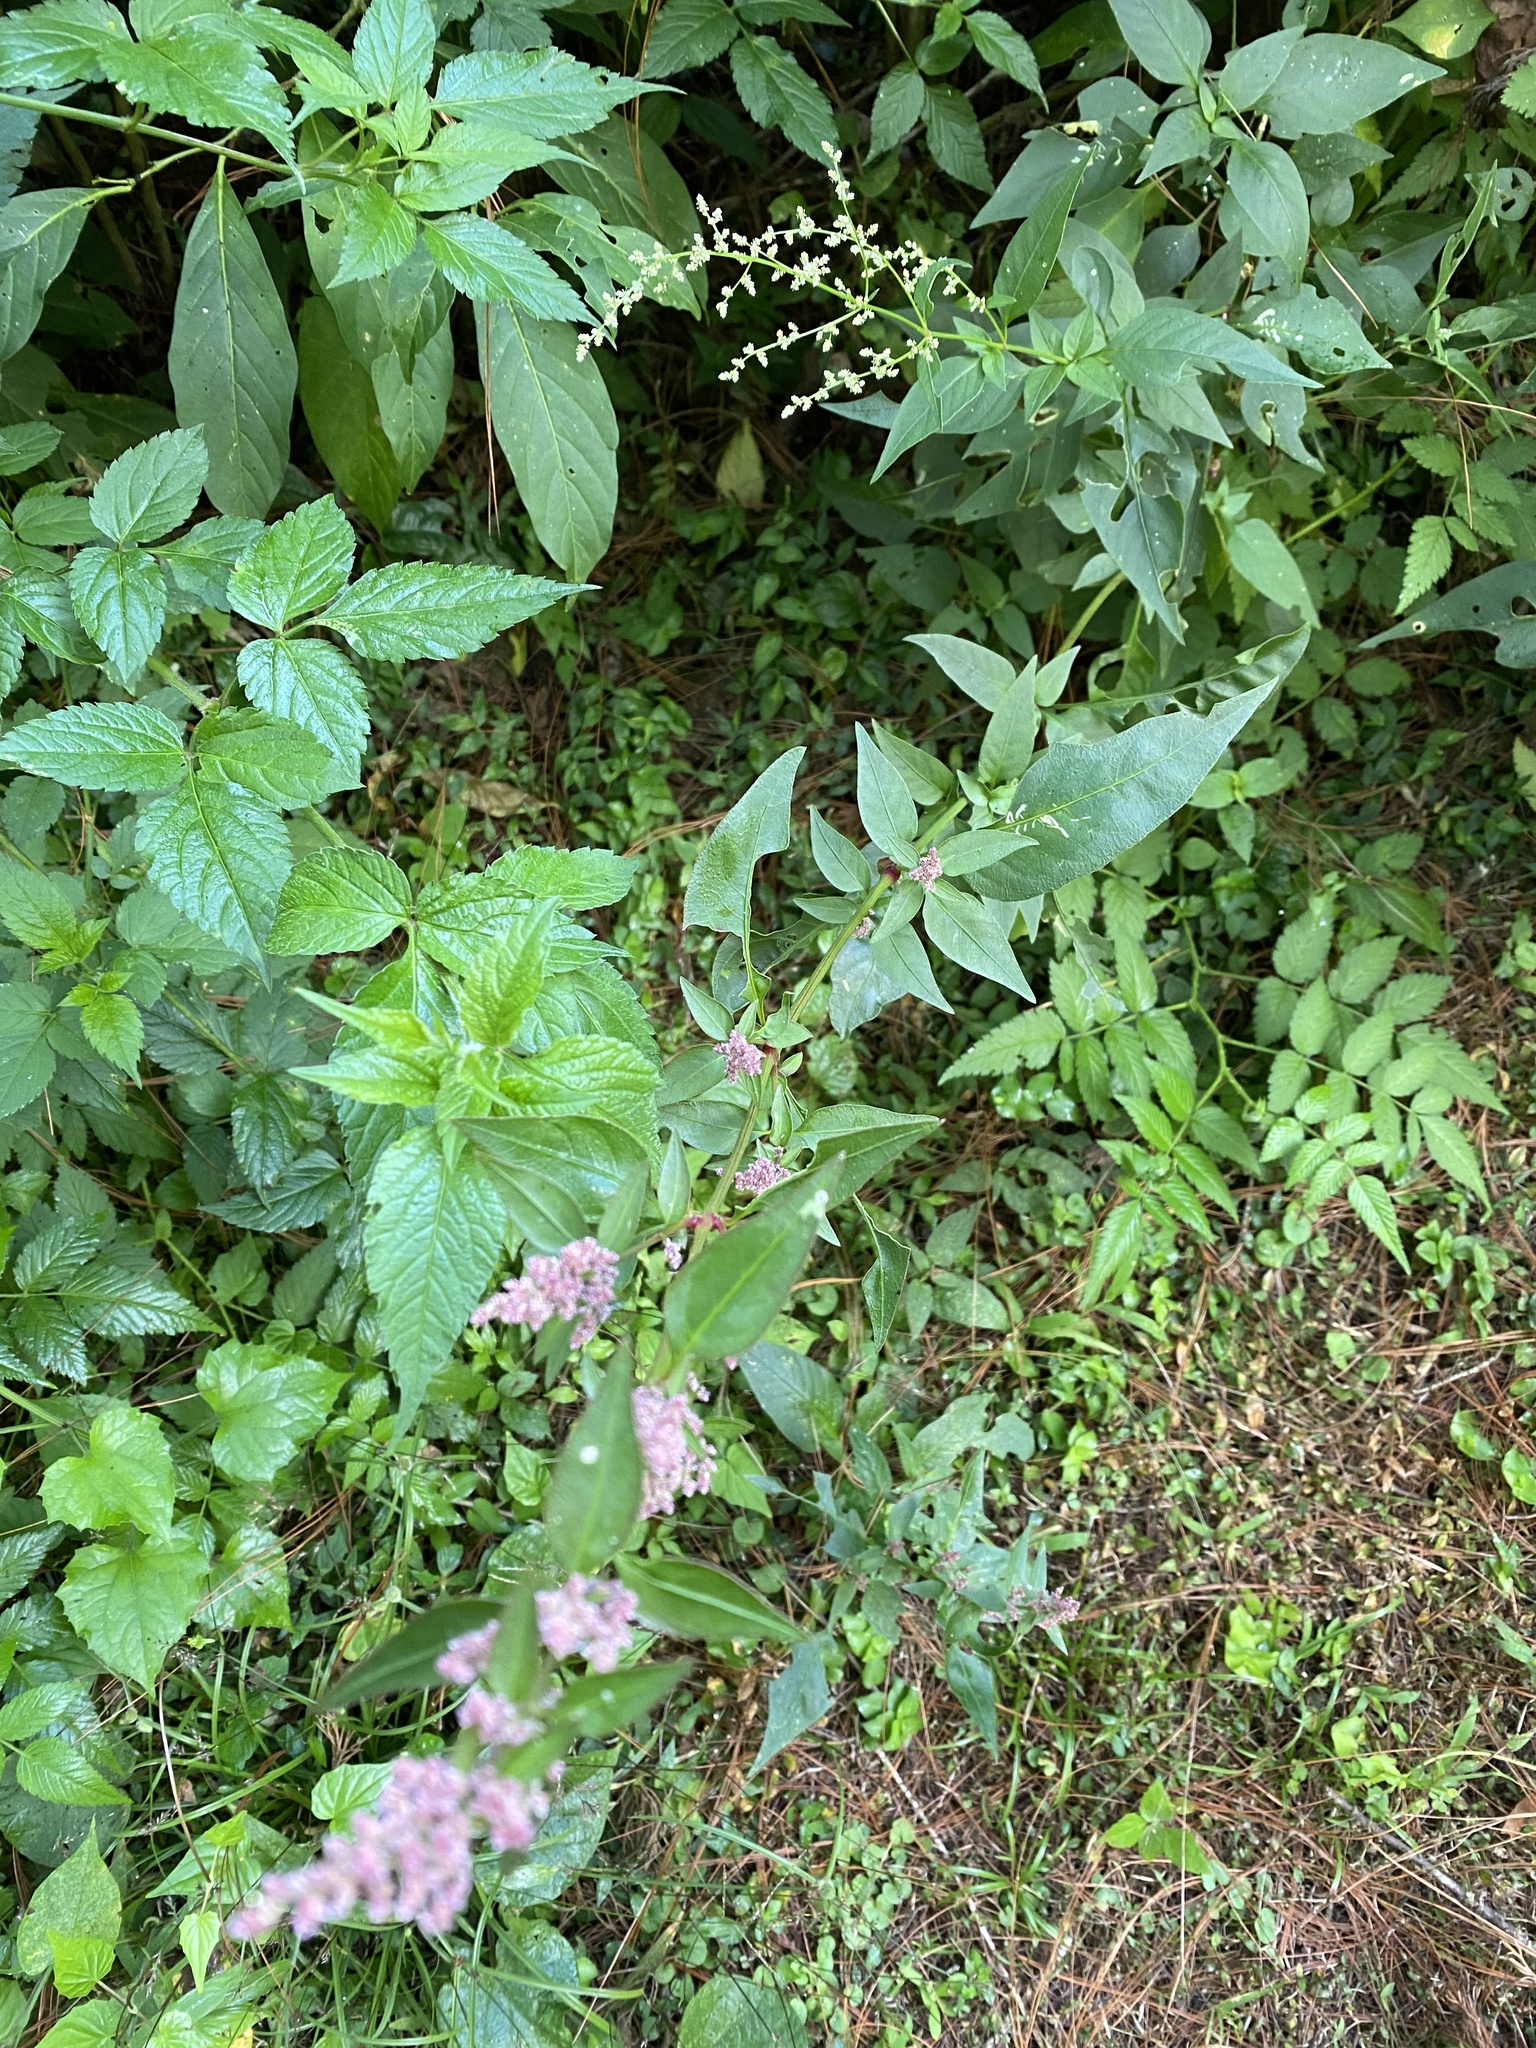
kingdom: Plantae
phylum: Tracheophyta
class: Magnoliopsida
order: Caryophyllales
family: Amaranthaceae
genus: Iresine
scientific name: Iresine diffusa
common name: Juba's-bush
